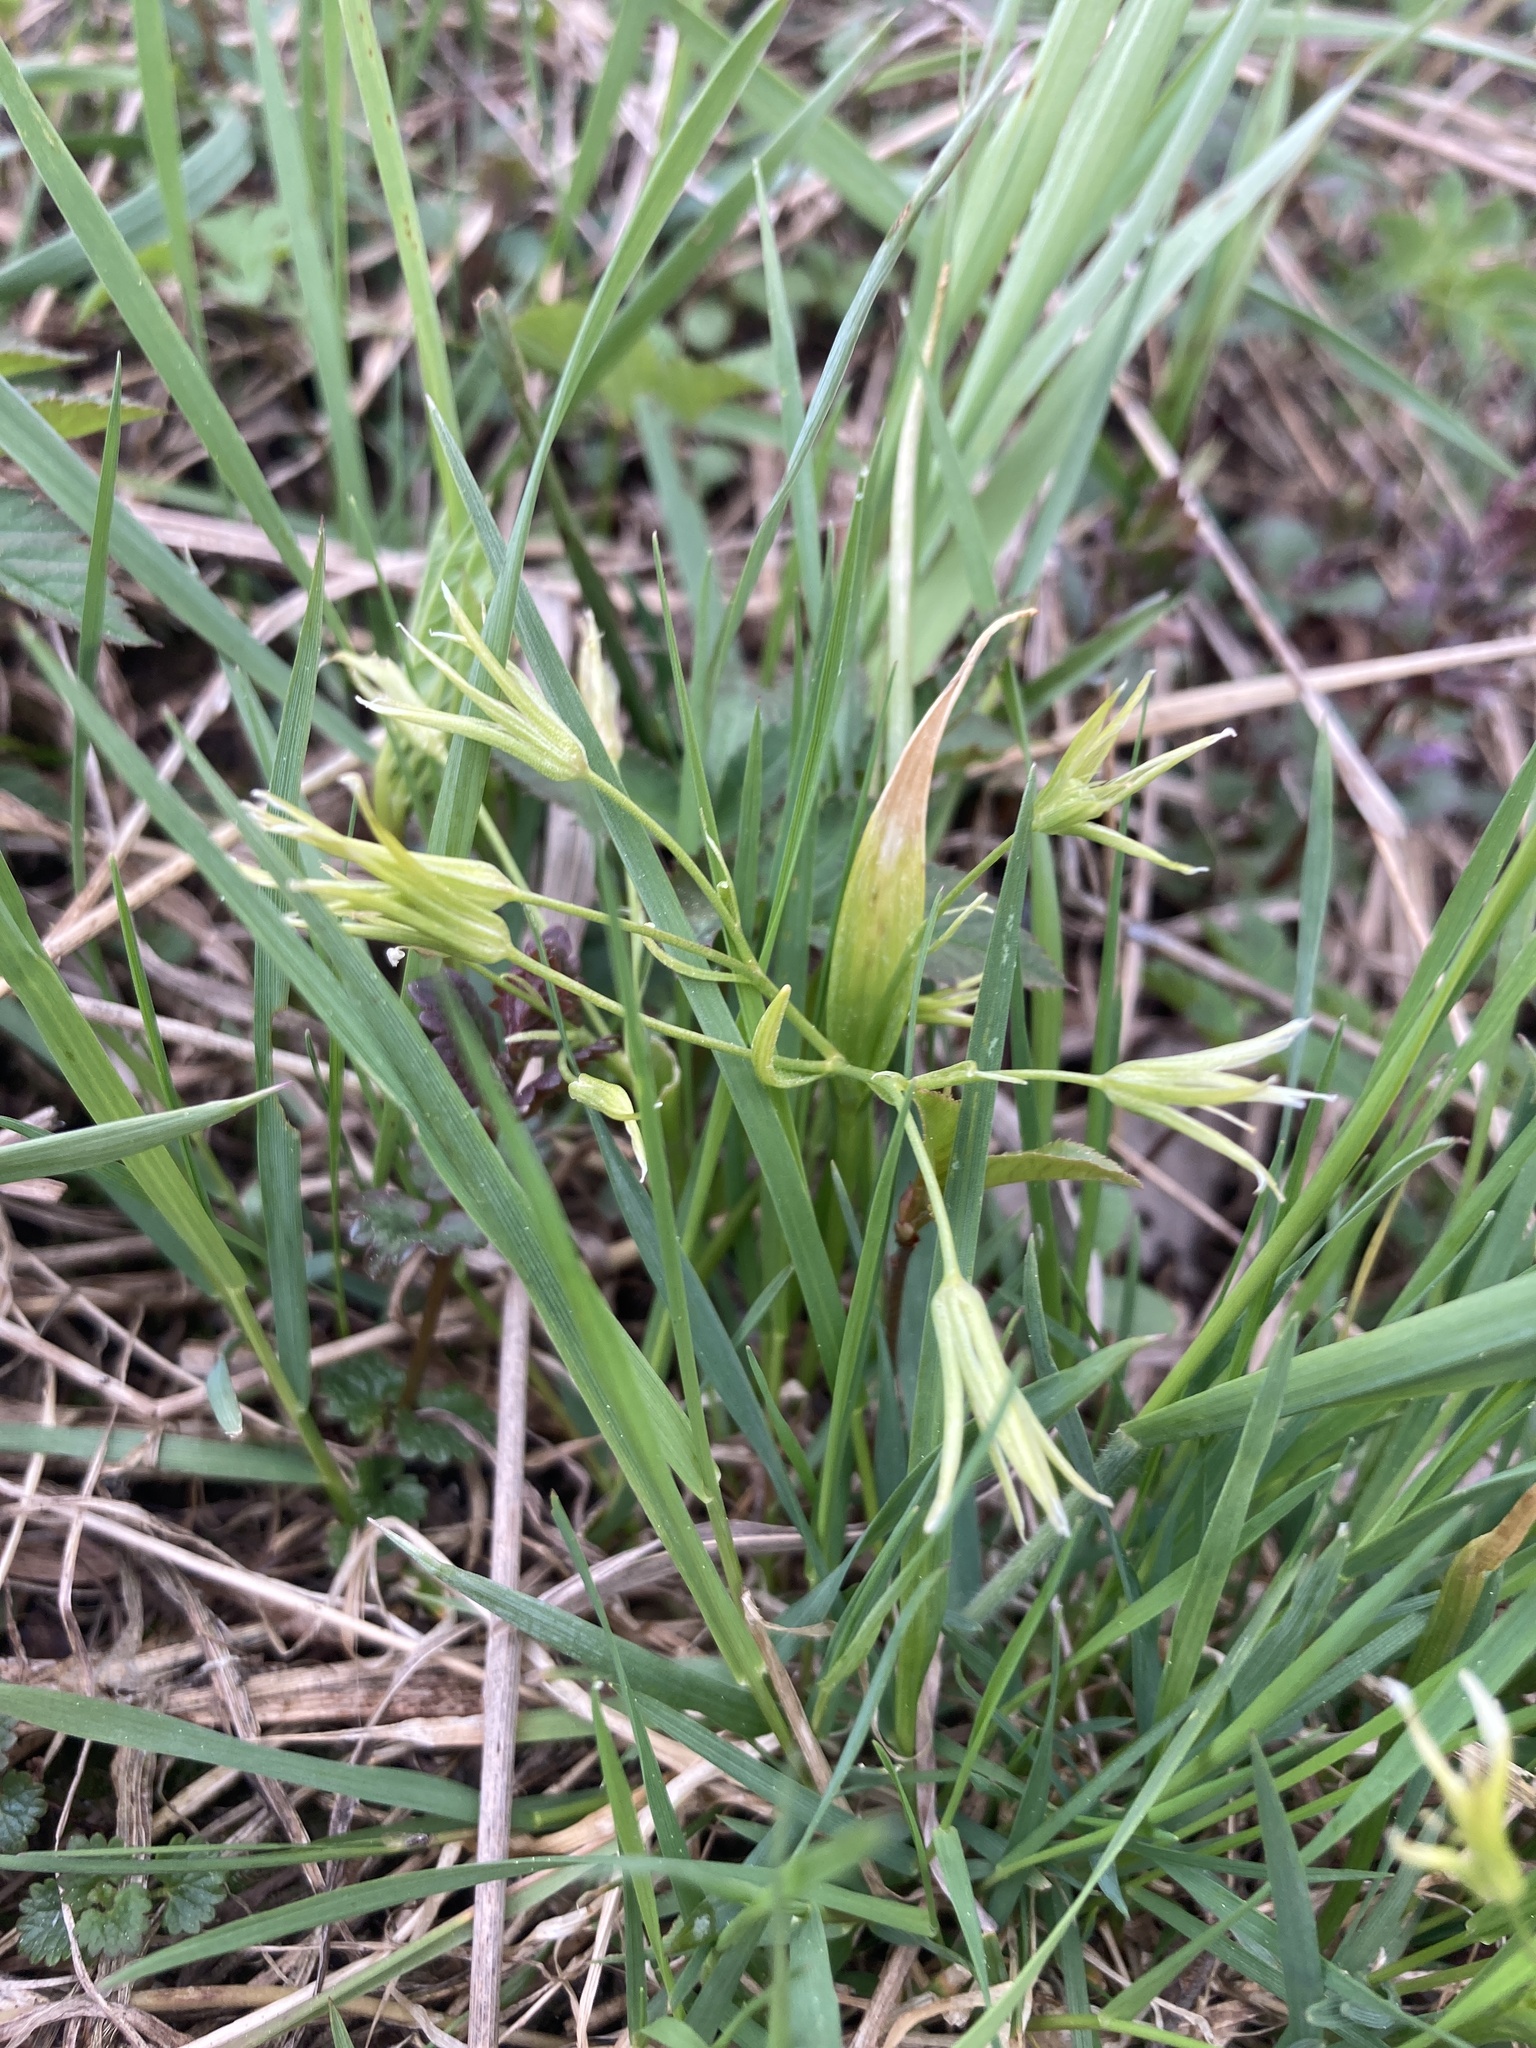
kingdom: Plantae
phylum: Tracheophyta
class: Liliopsida
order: Liliales
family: Liliaceae
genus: Gagea
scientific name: Gagea minima
